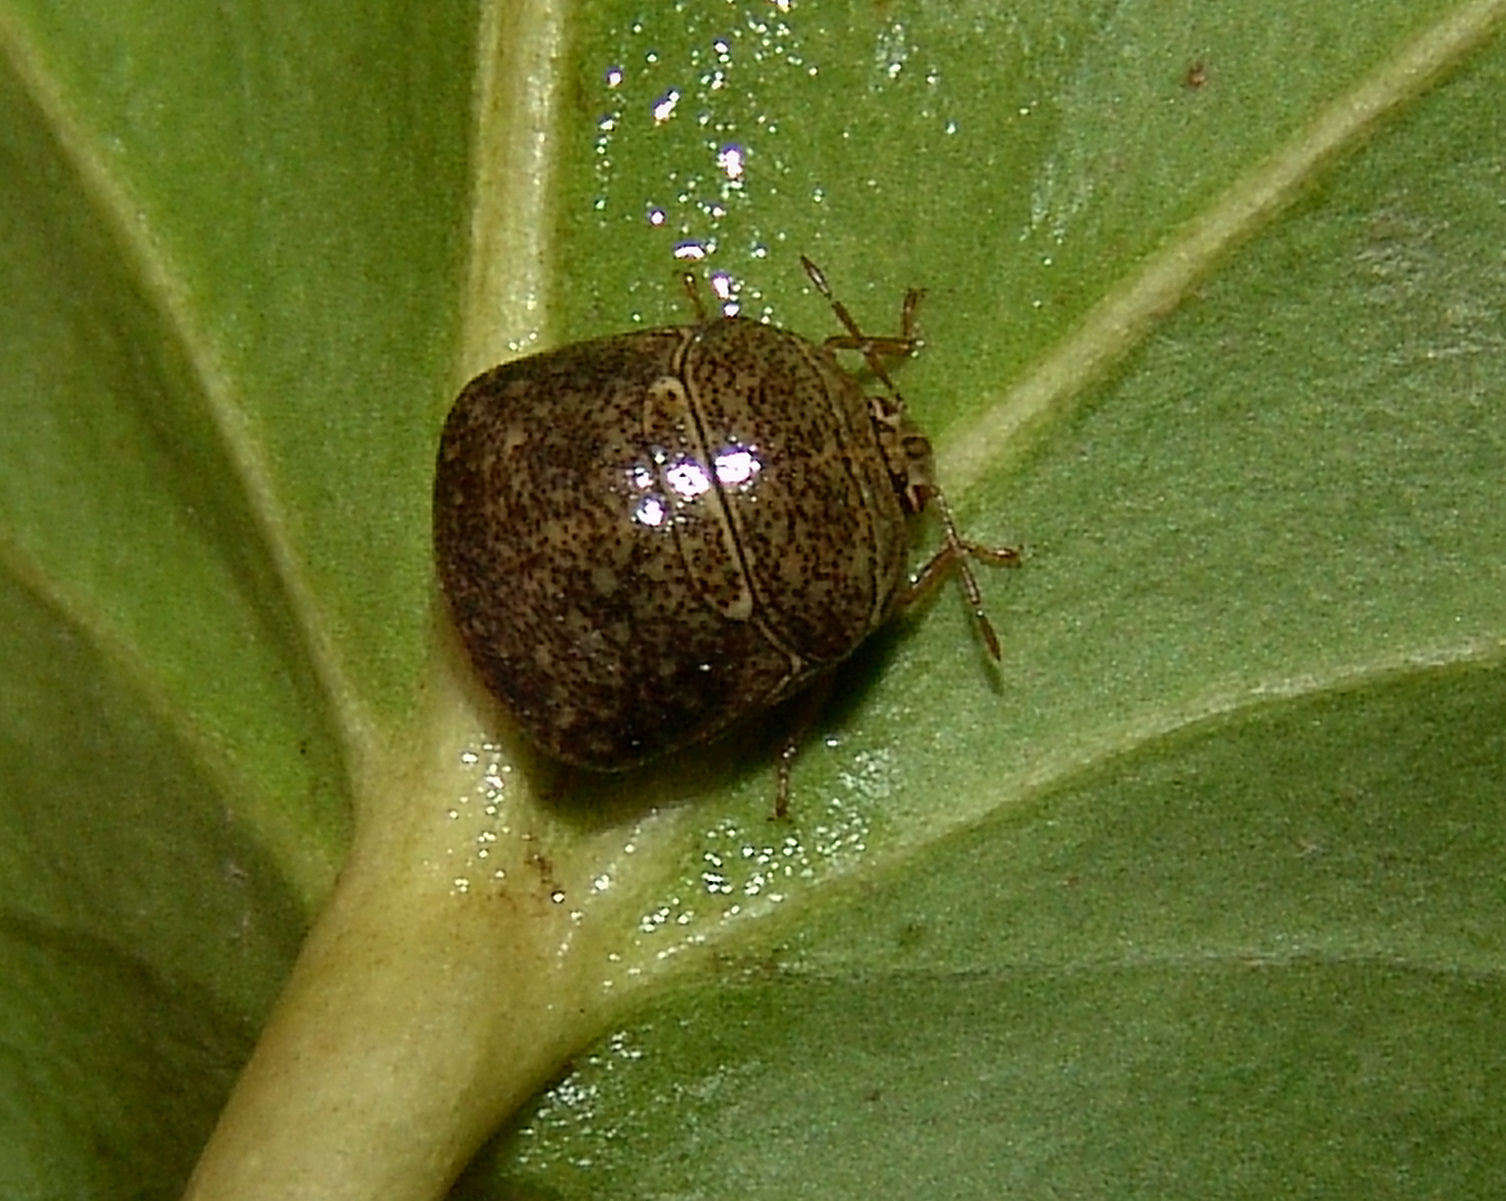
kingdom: Animalia
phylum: Arthropoda
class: Insecta
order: Hemiptera
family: Plataspidae
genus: Megacopta
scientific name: Megacopta cribraria
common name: Bean plataspid
